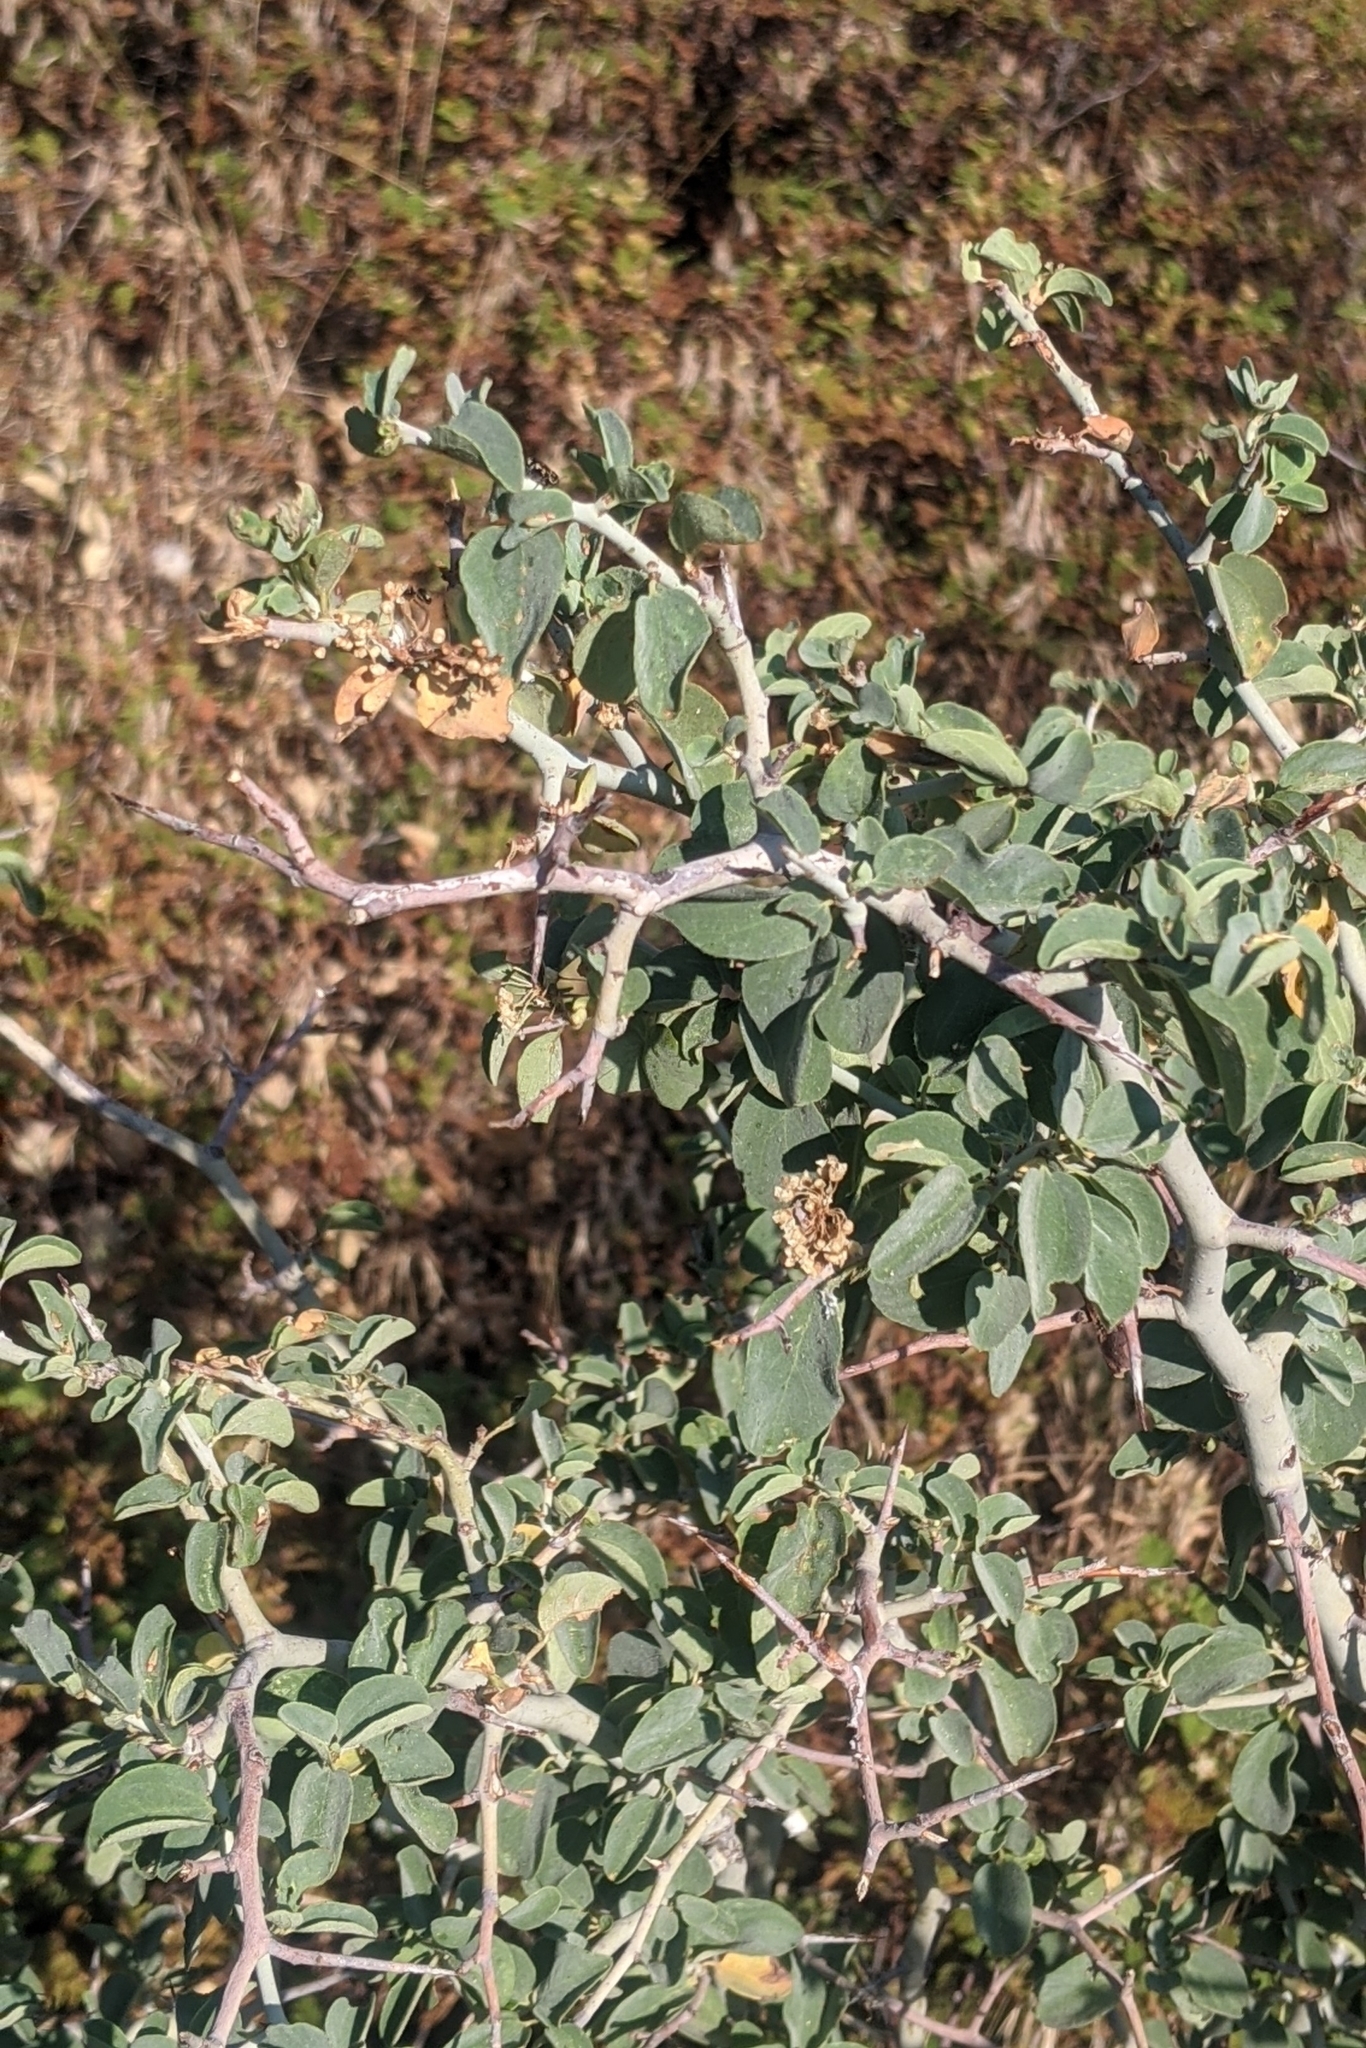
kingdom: Plantae
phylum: Tracheophyta
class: Magnoliopsida
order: Rosales
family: Rhamnaceae
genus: Ceanothus
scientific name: Ceanothus cordulatus
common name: Mountain whitethorn
